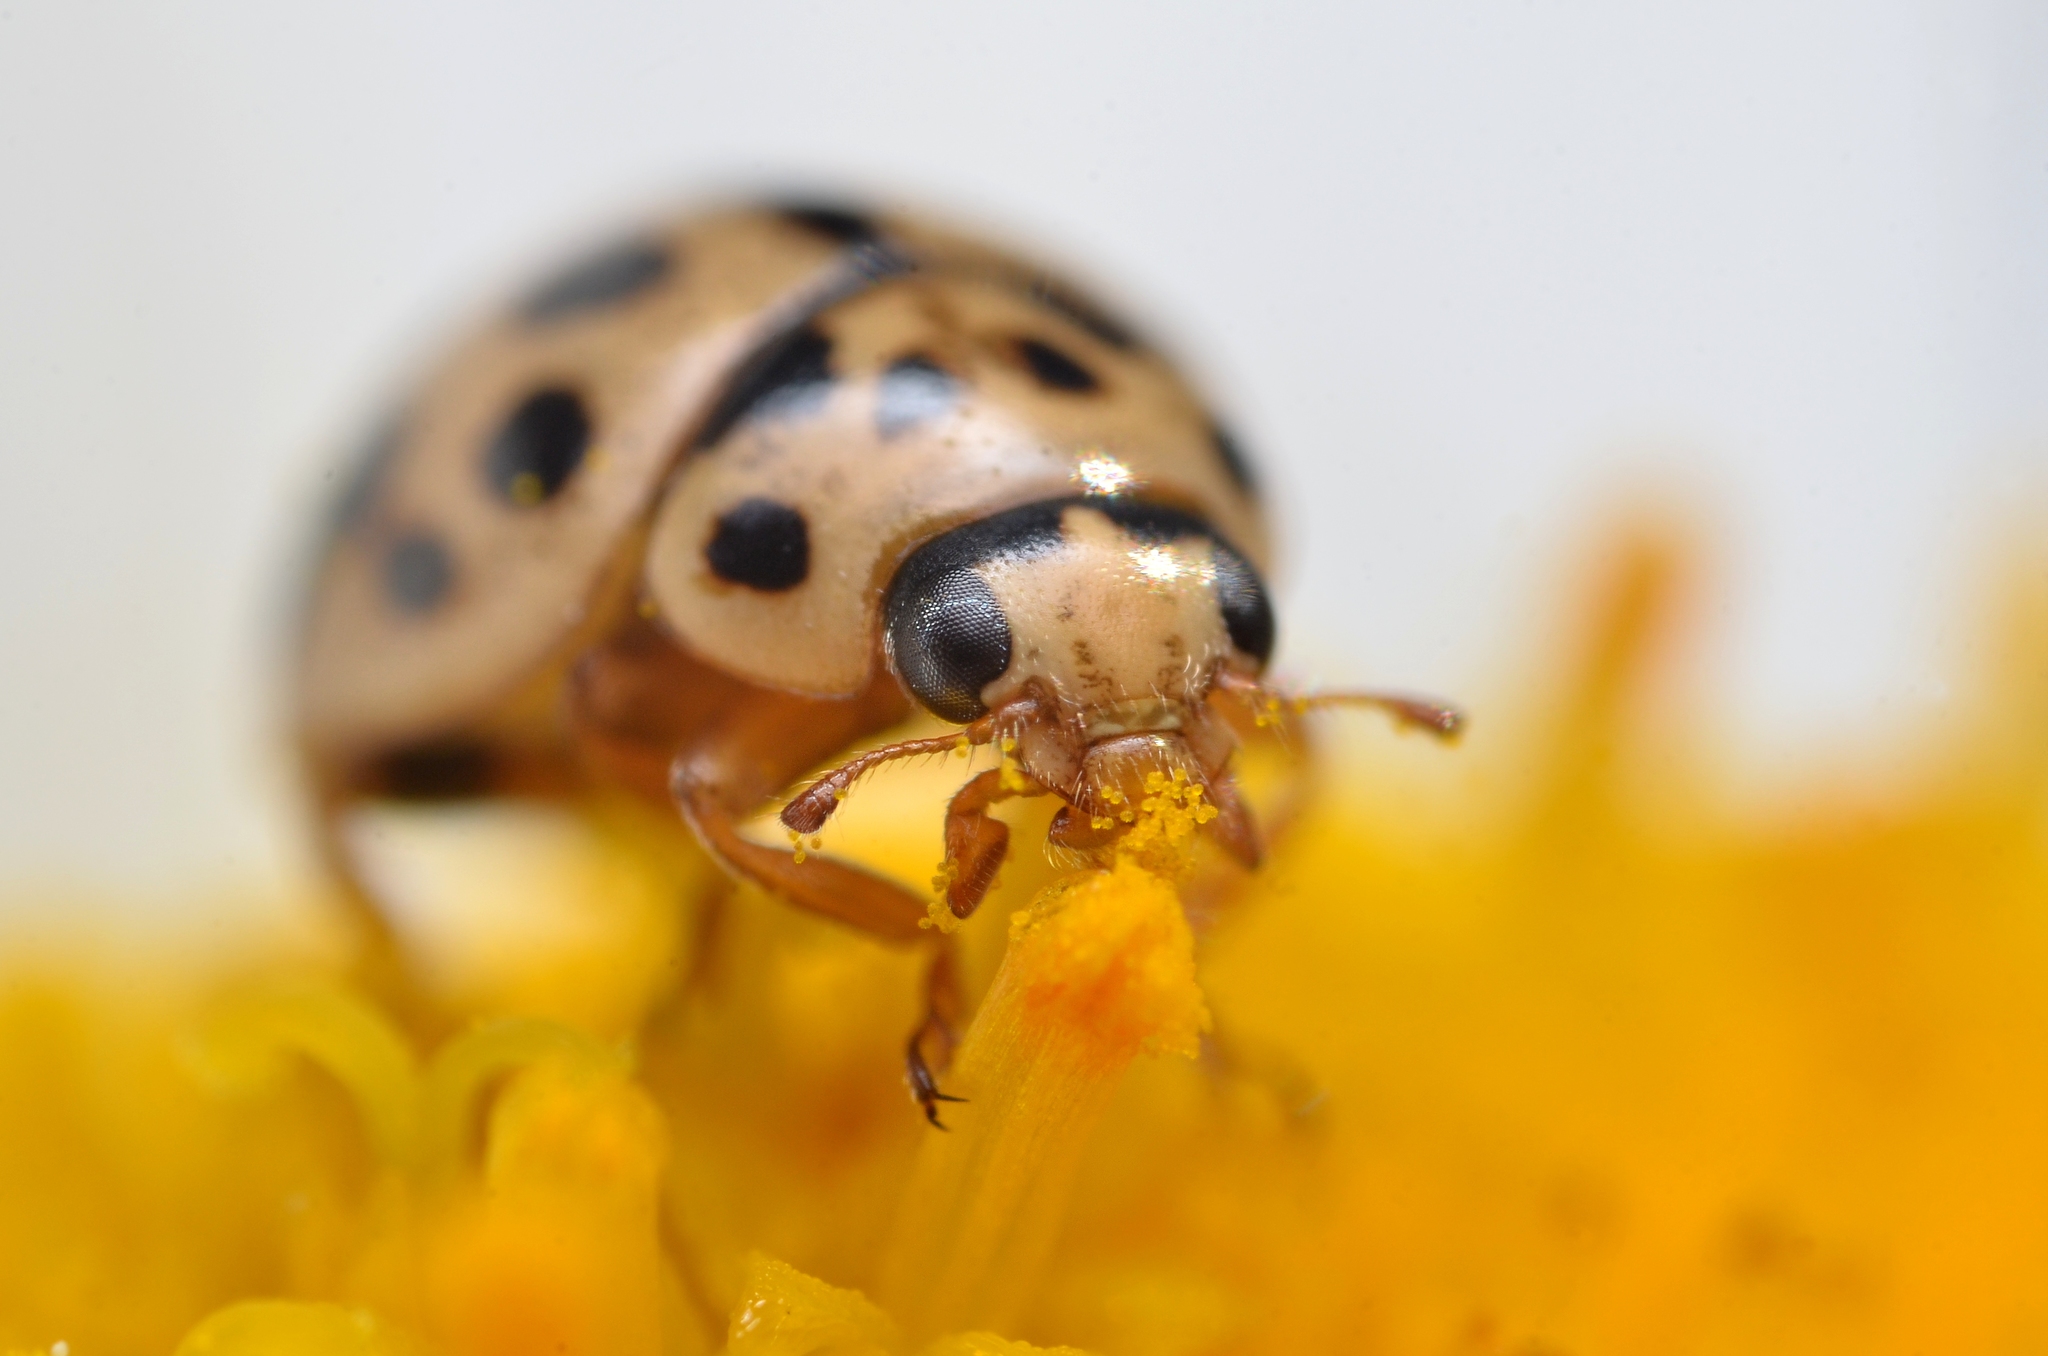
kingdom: Animalia
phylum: Arthropoda
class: Insecta
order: Coleoptera
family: Coccinellidae
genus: Tytthaspis
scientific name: Tytthaspis sedecimpunctata
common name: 16-spot ladybird
